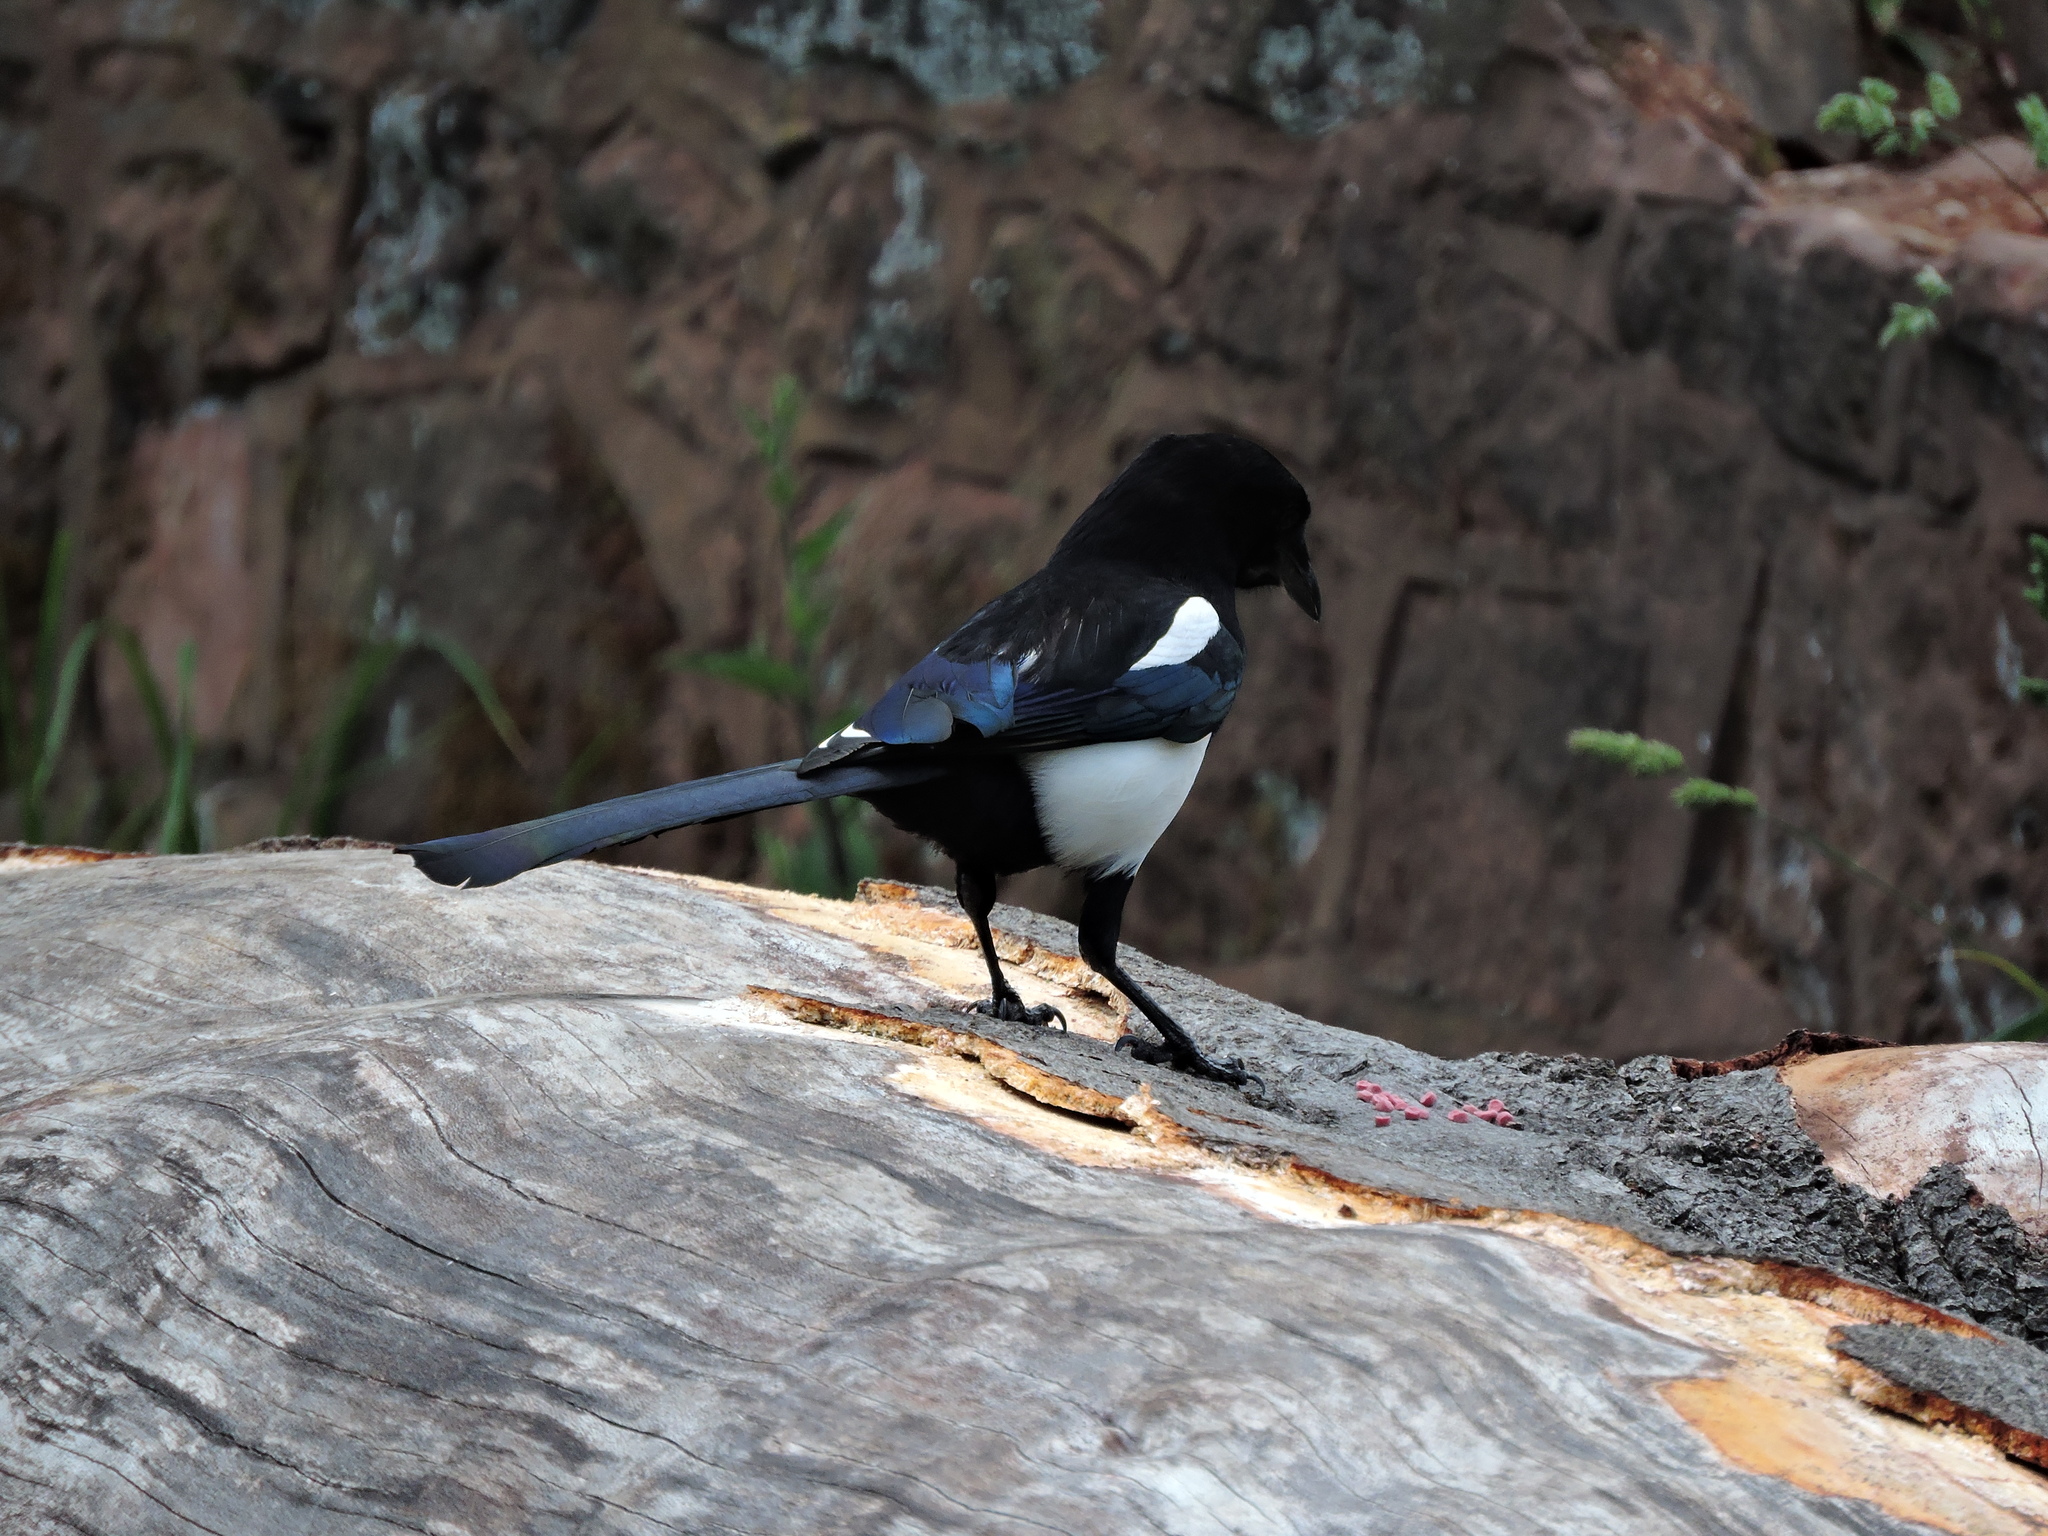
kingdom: Animalia
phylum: Chordata
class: Aves
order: Passeriformes
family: Corvidae
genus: Pica
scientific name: Pica pica
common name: Eurasian magpie
